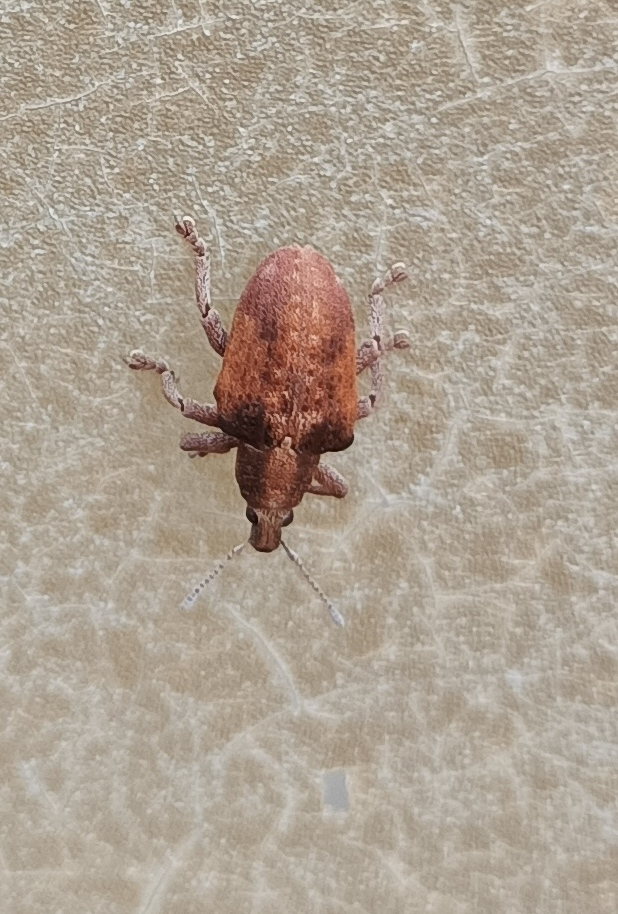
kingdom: Animalia
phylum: Arthropoda
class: Insecta
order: Coleoptera
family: Curculionidae
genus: Gonipterus
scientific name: Gonipterus platensis
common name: Eucalyptus snout beetle
